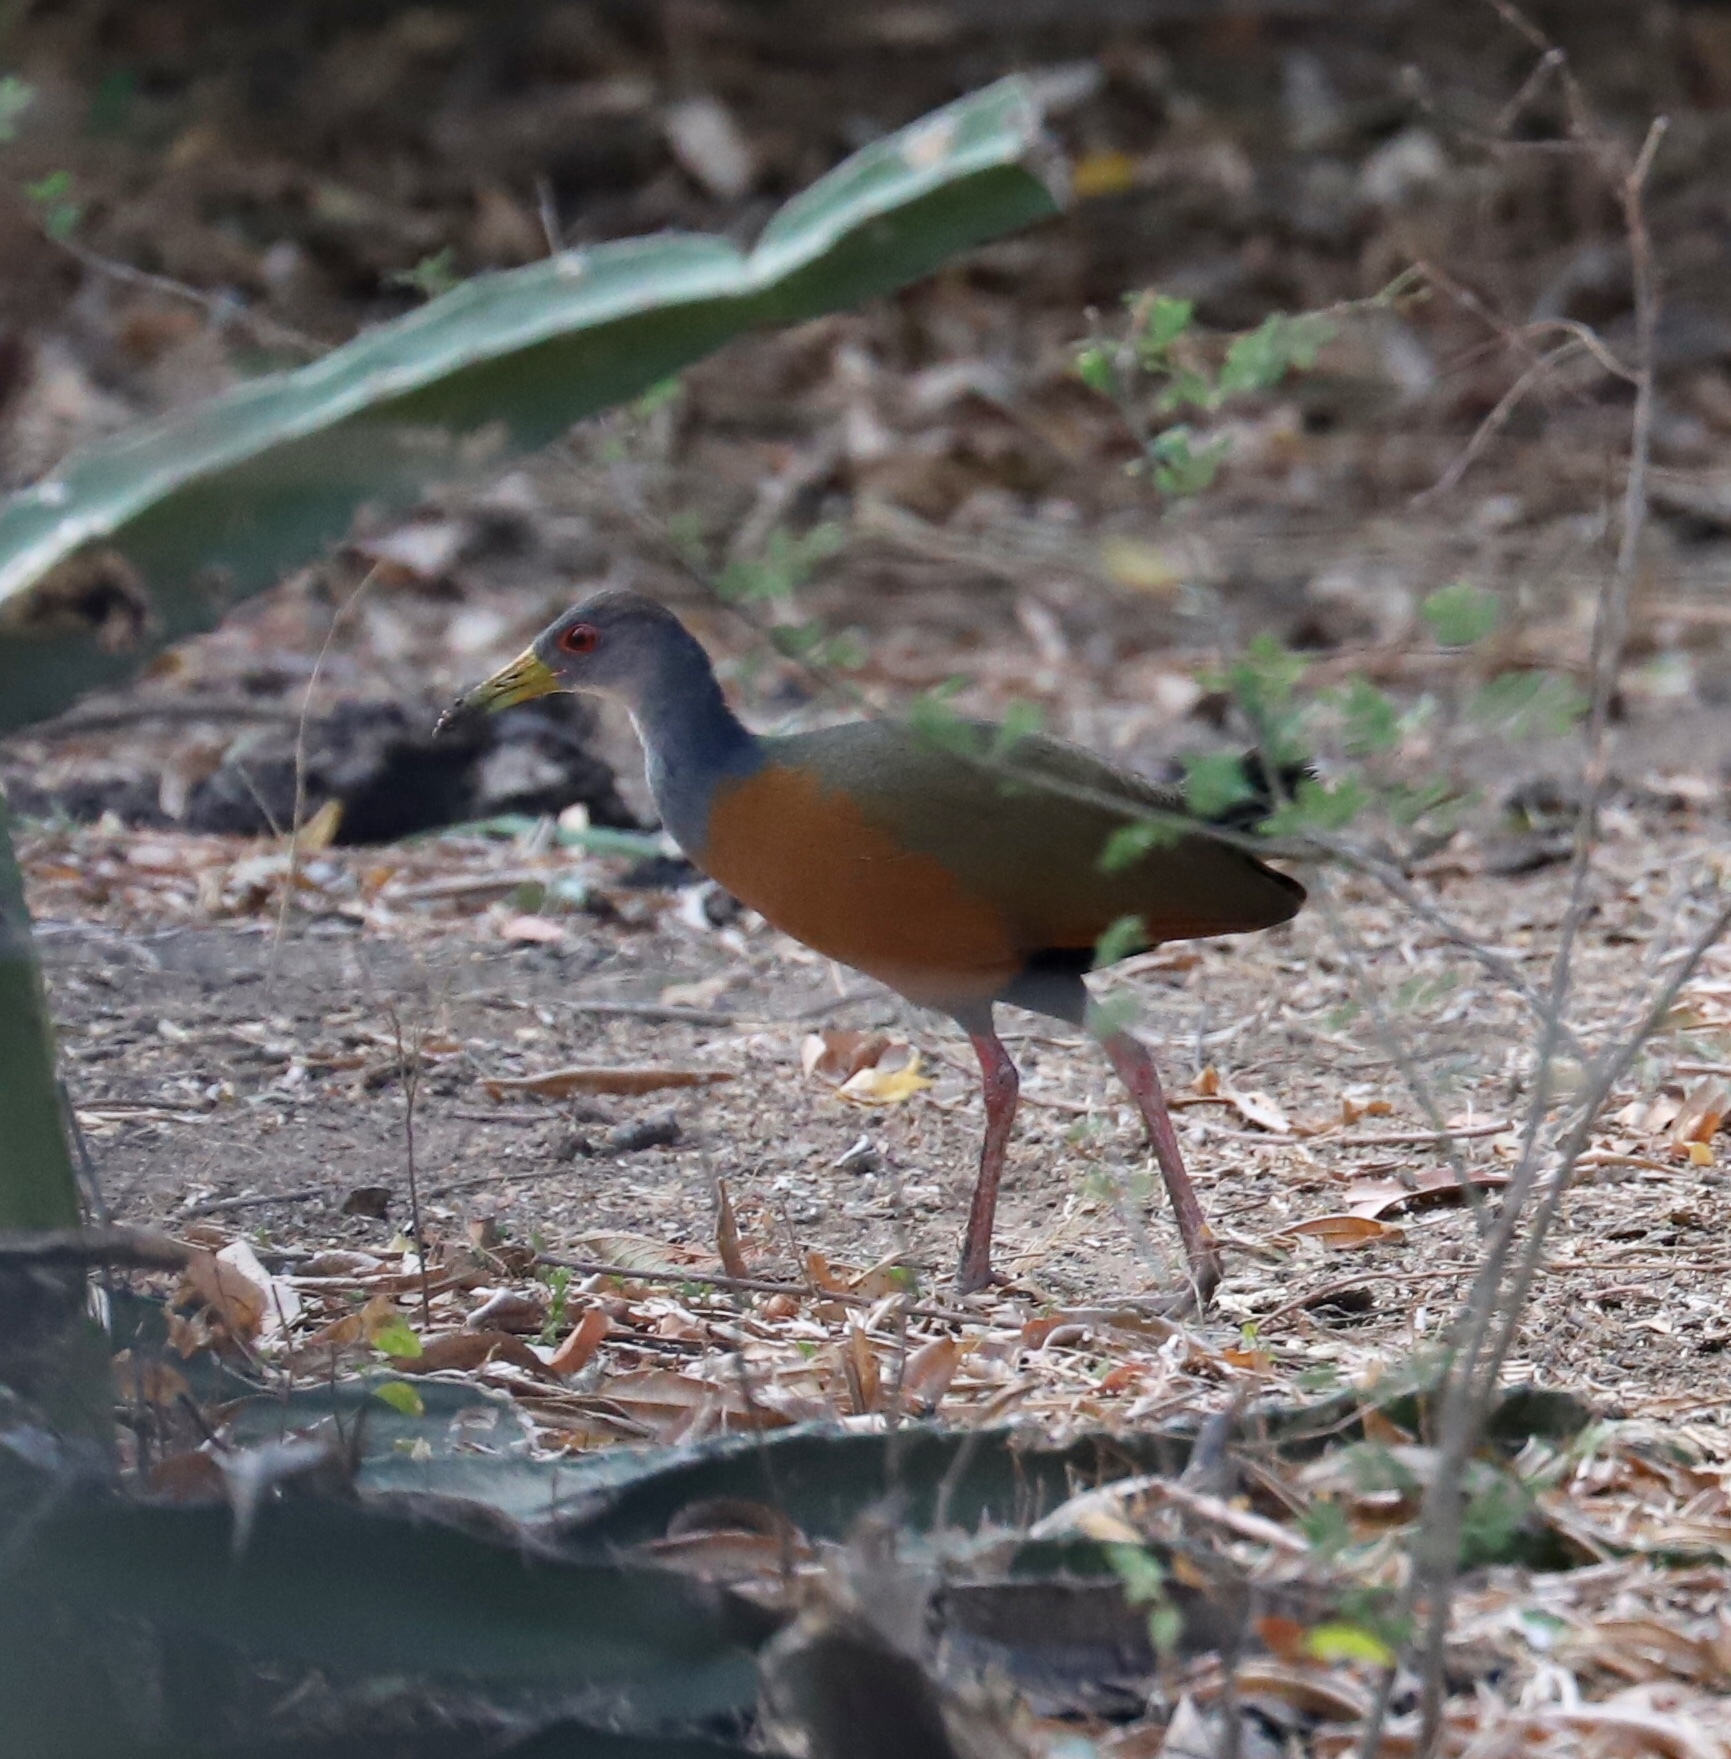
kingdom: Animalia
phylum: Chordata
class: Aves
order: Gruiformes
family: Rallidae
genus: Aramides
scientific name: Aramides cajanea
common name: Gray-necked wood-rail
